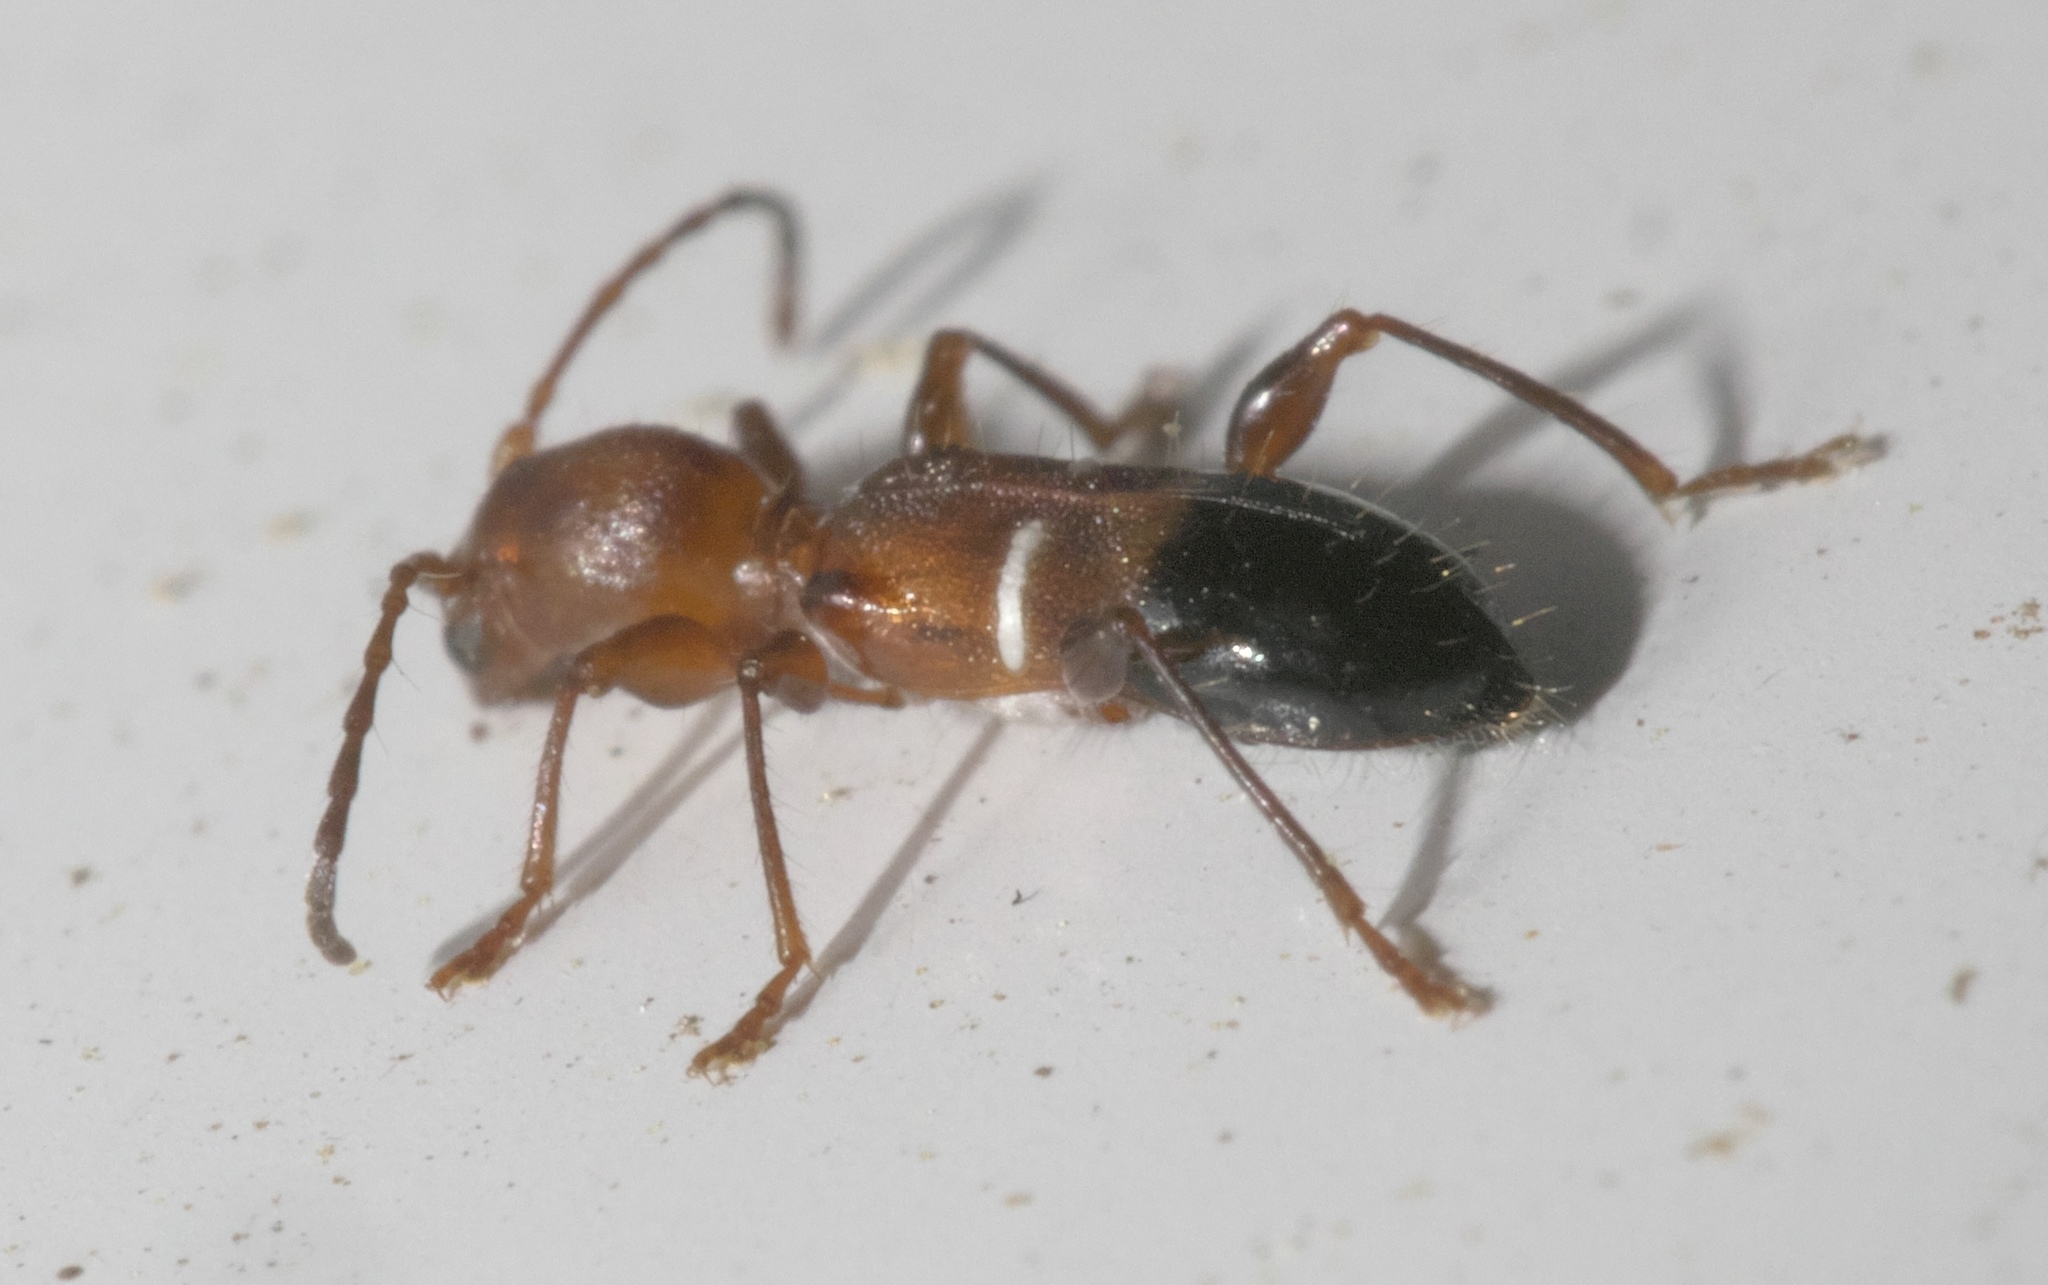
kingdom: Animalia
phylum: Arthropoda
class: Insecta
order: Coleoptera
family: Cerambycidae
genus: Euderces
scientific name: Euderces reichei
